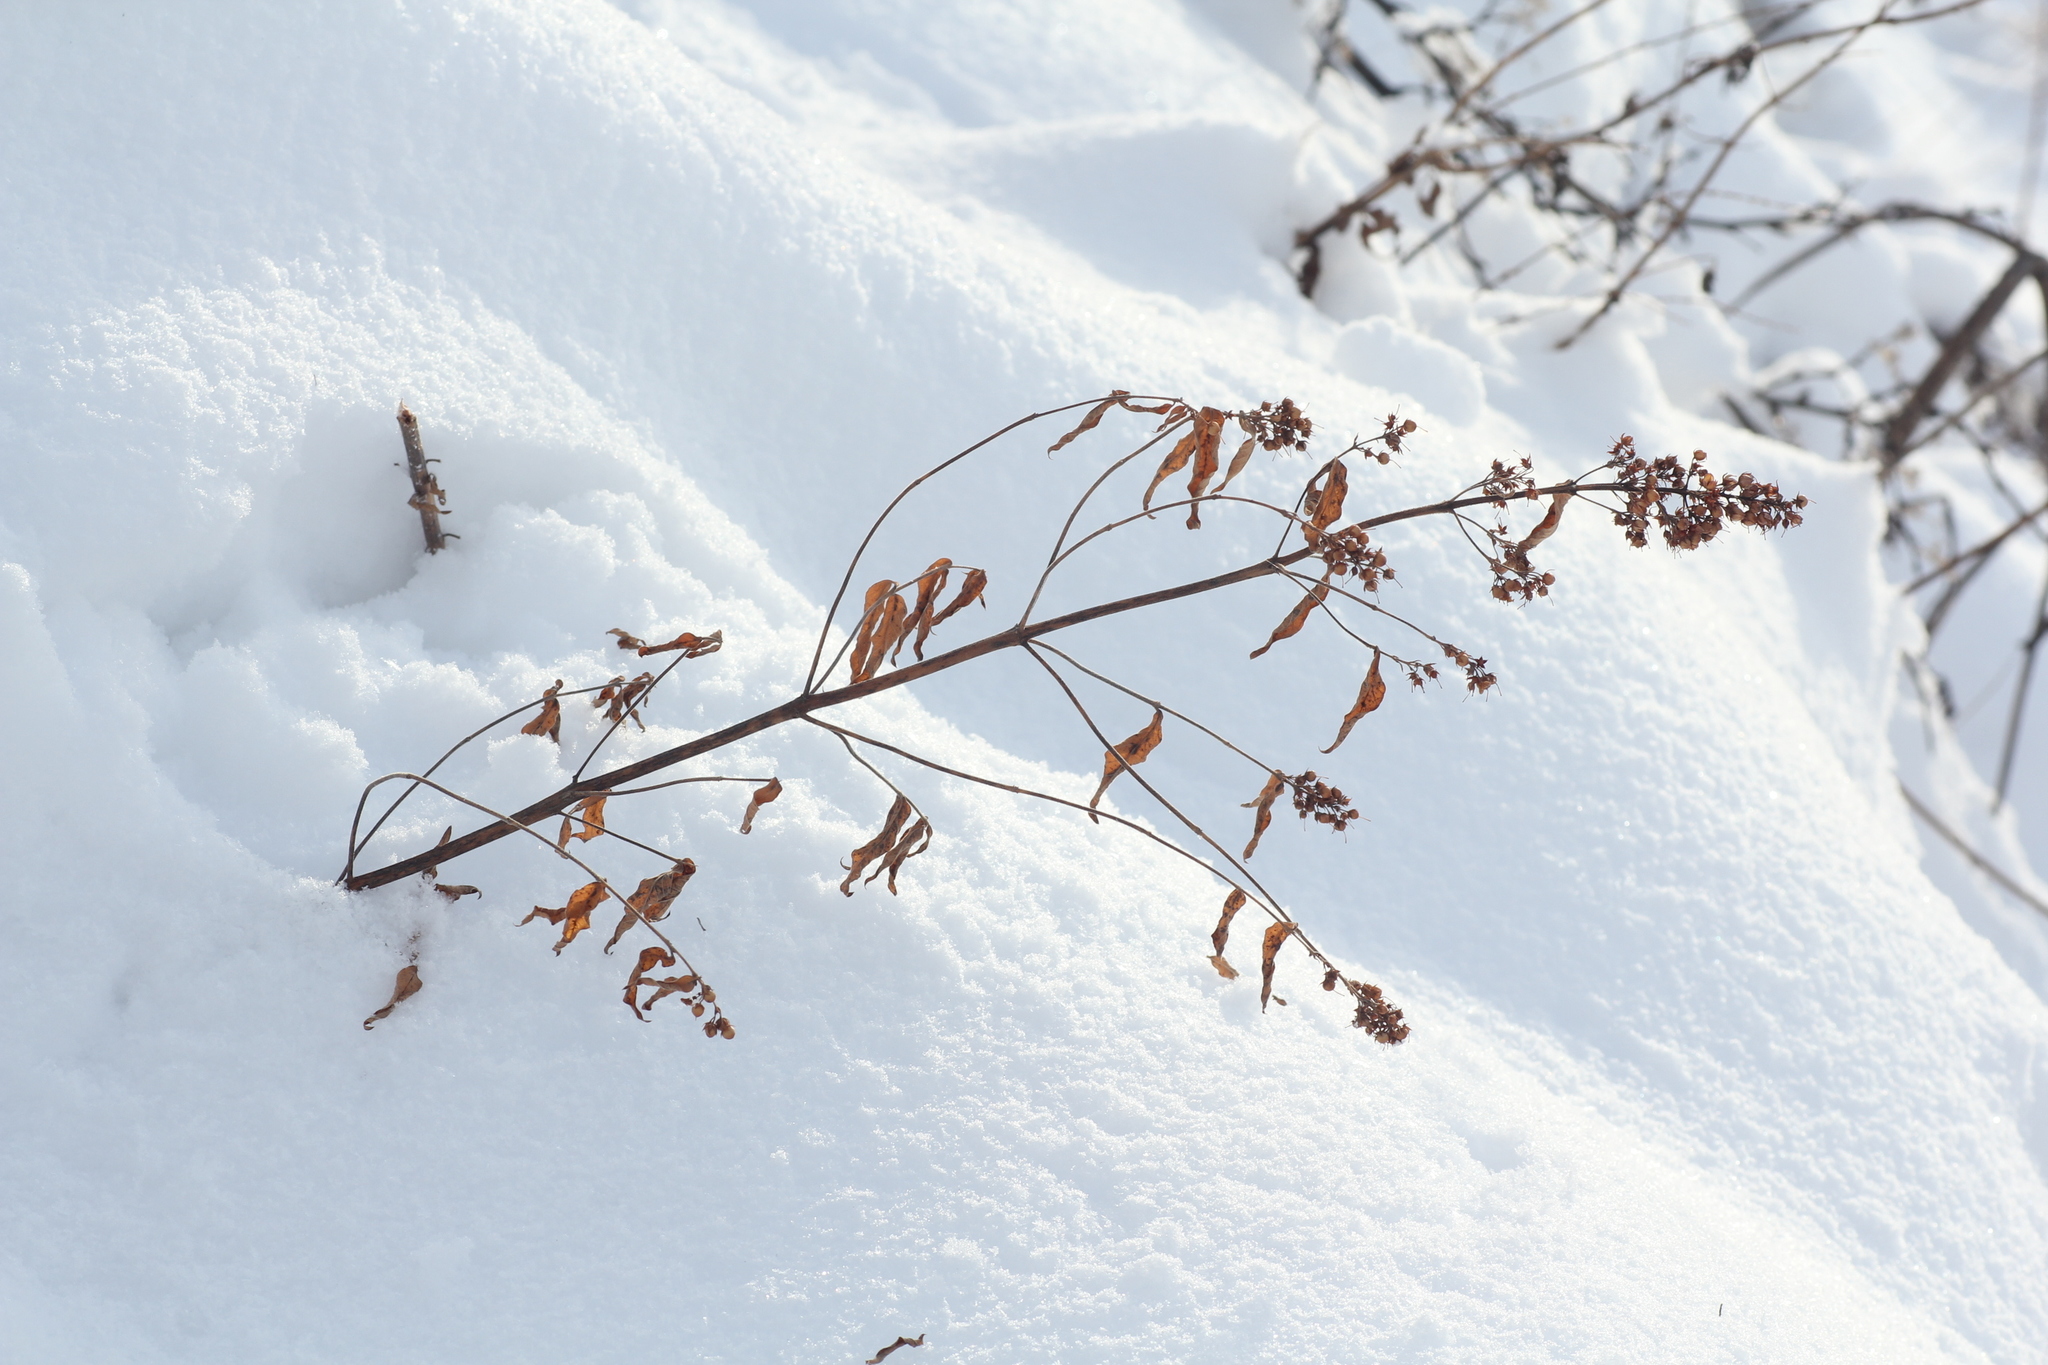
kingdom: Plantae
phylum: Tracheophyta
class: Magnoliopsida
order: Ericales
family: Primulaceae
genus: Lysimachia
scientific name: Lysimachia vulgaris
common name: Yellow loosestrife
